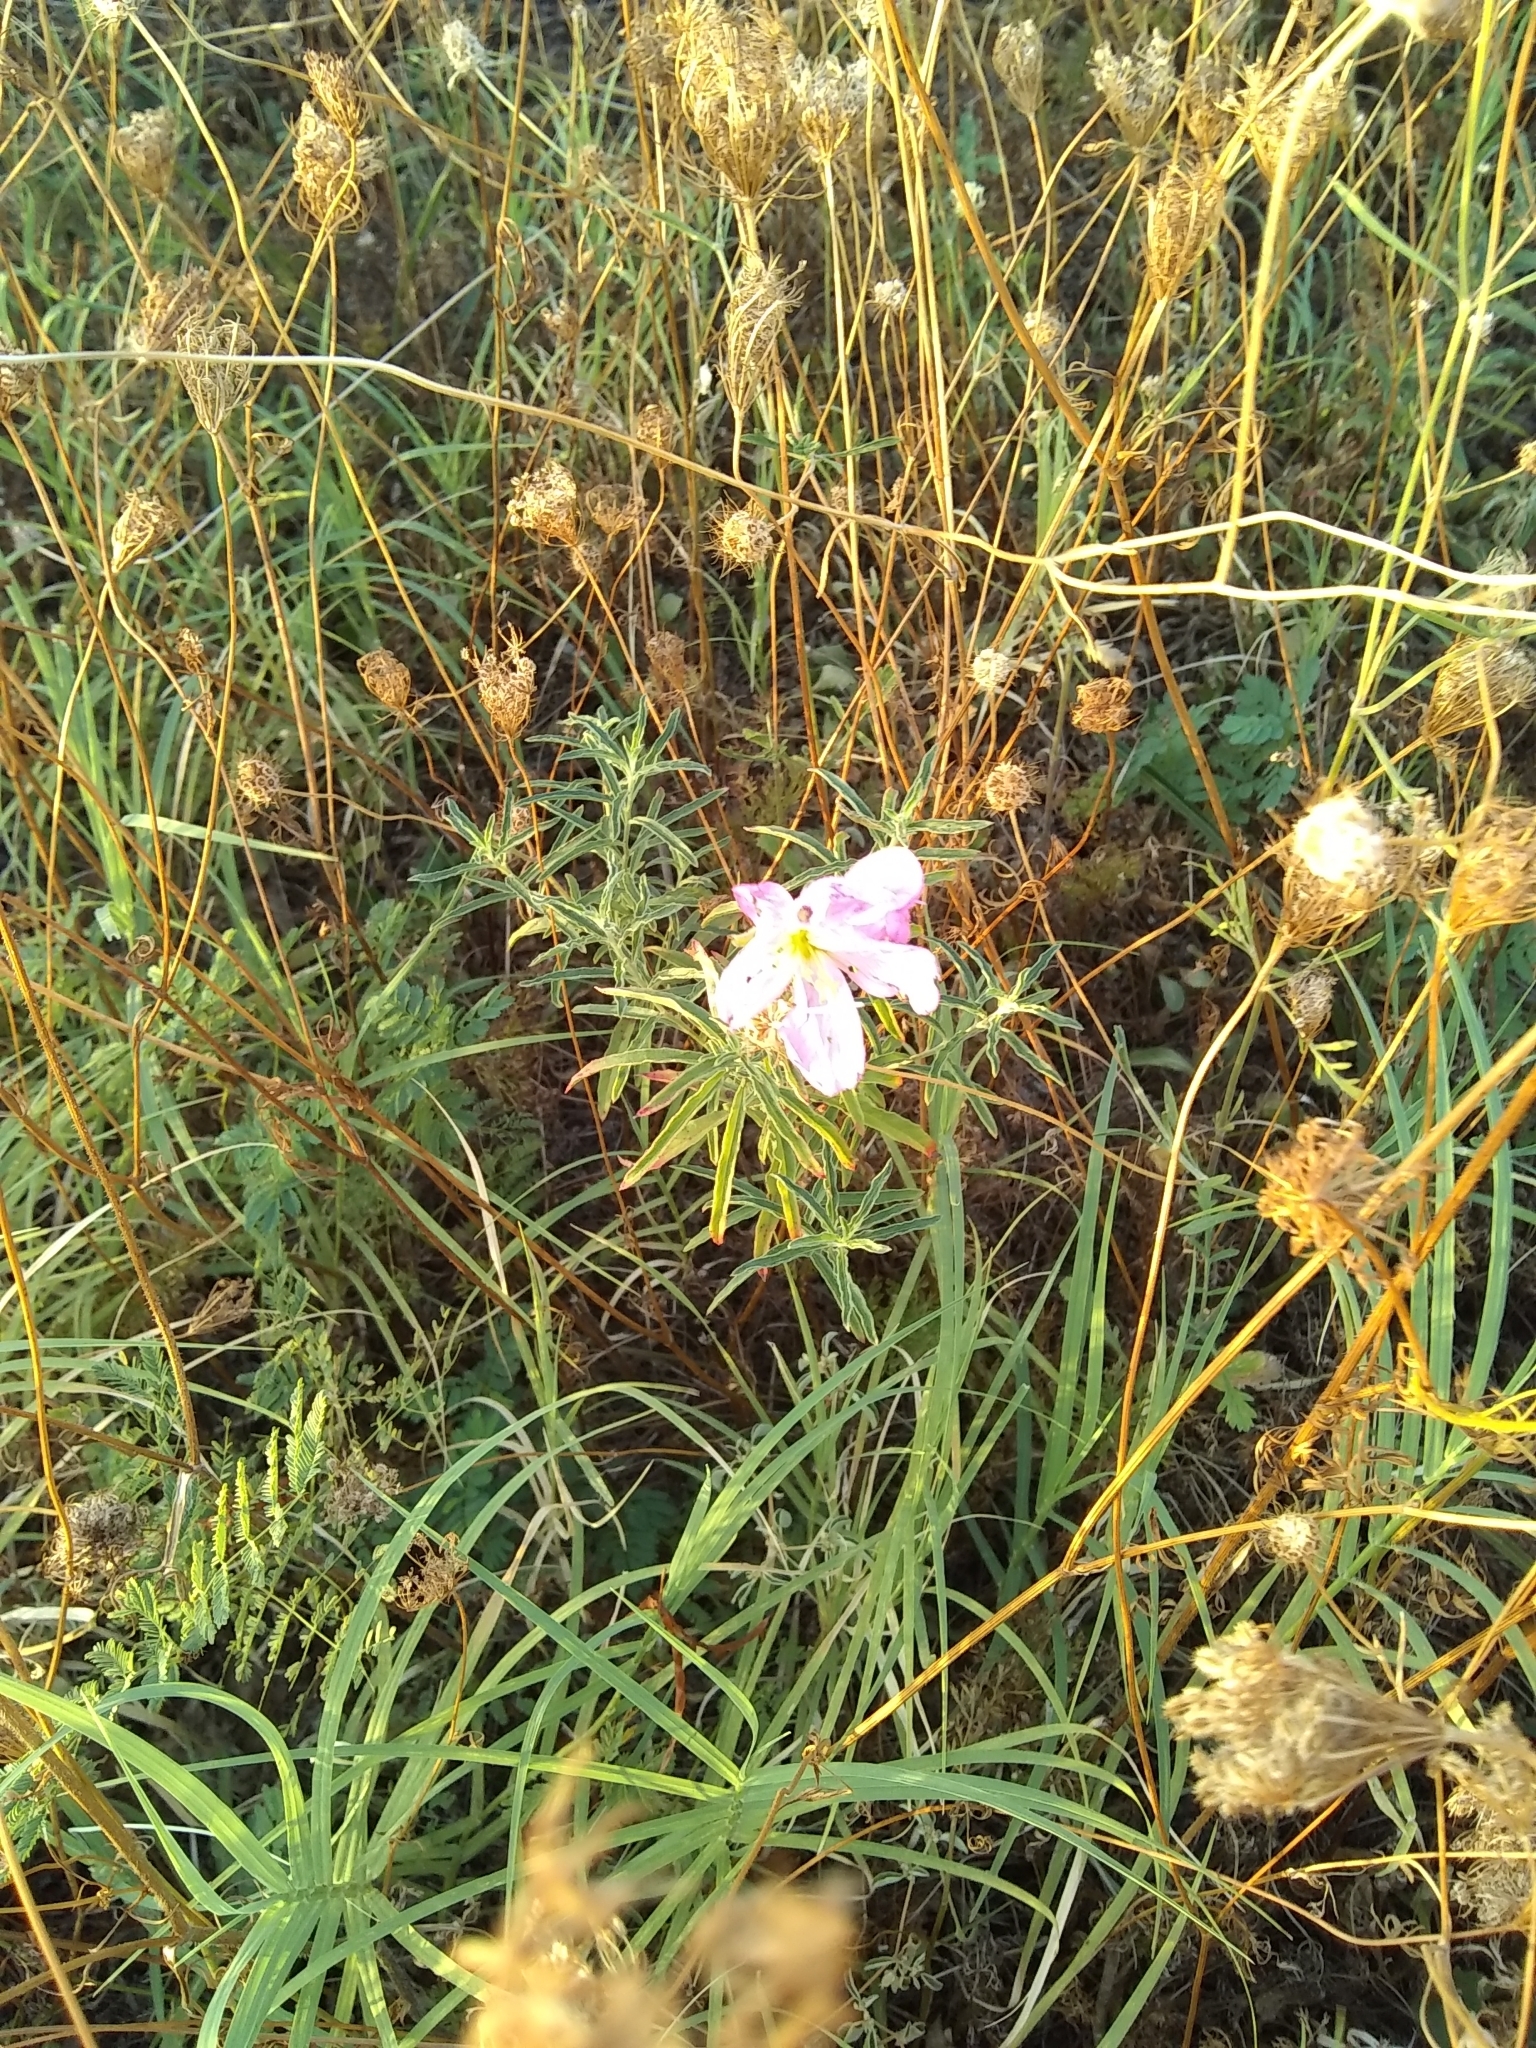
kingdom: Plantae
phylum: Tracheophyta
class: Magnoliopsida
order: Myrtales
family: Onagraceae
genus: Oenothera
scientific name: Oenothera speciosa
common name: White evening-primrose
